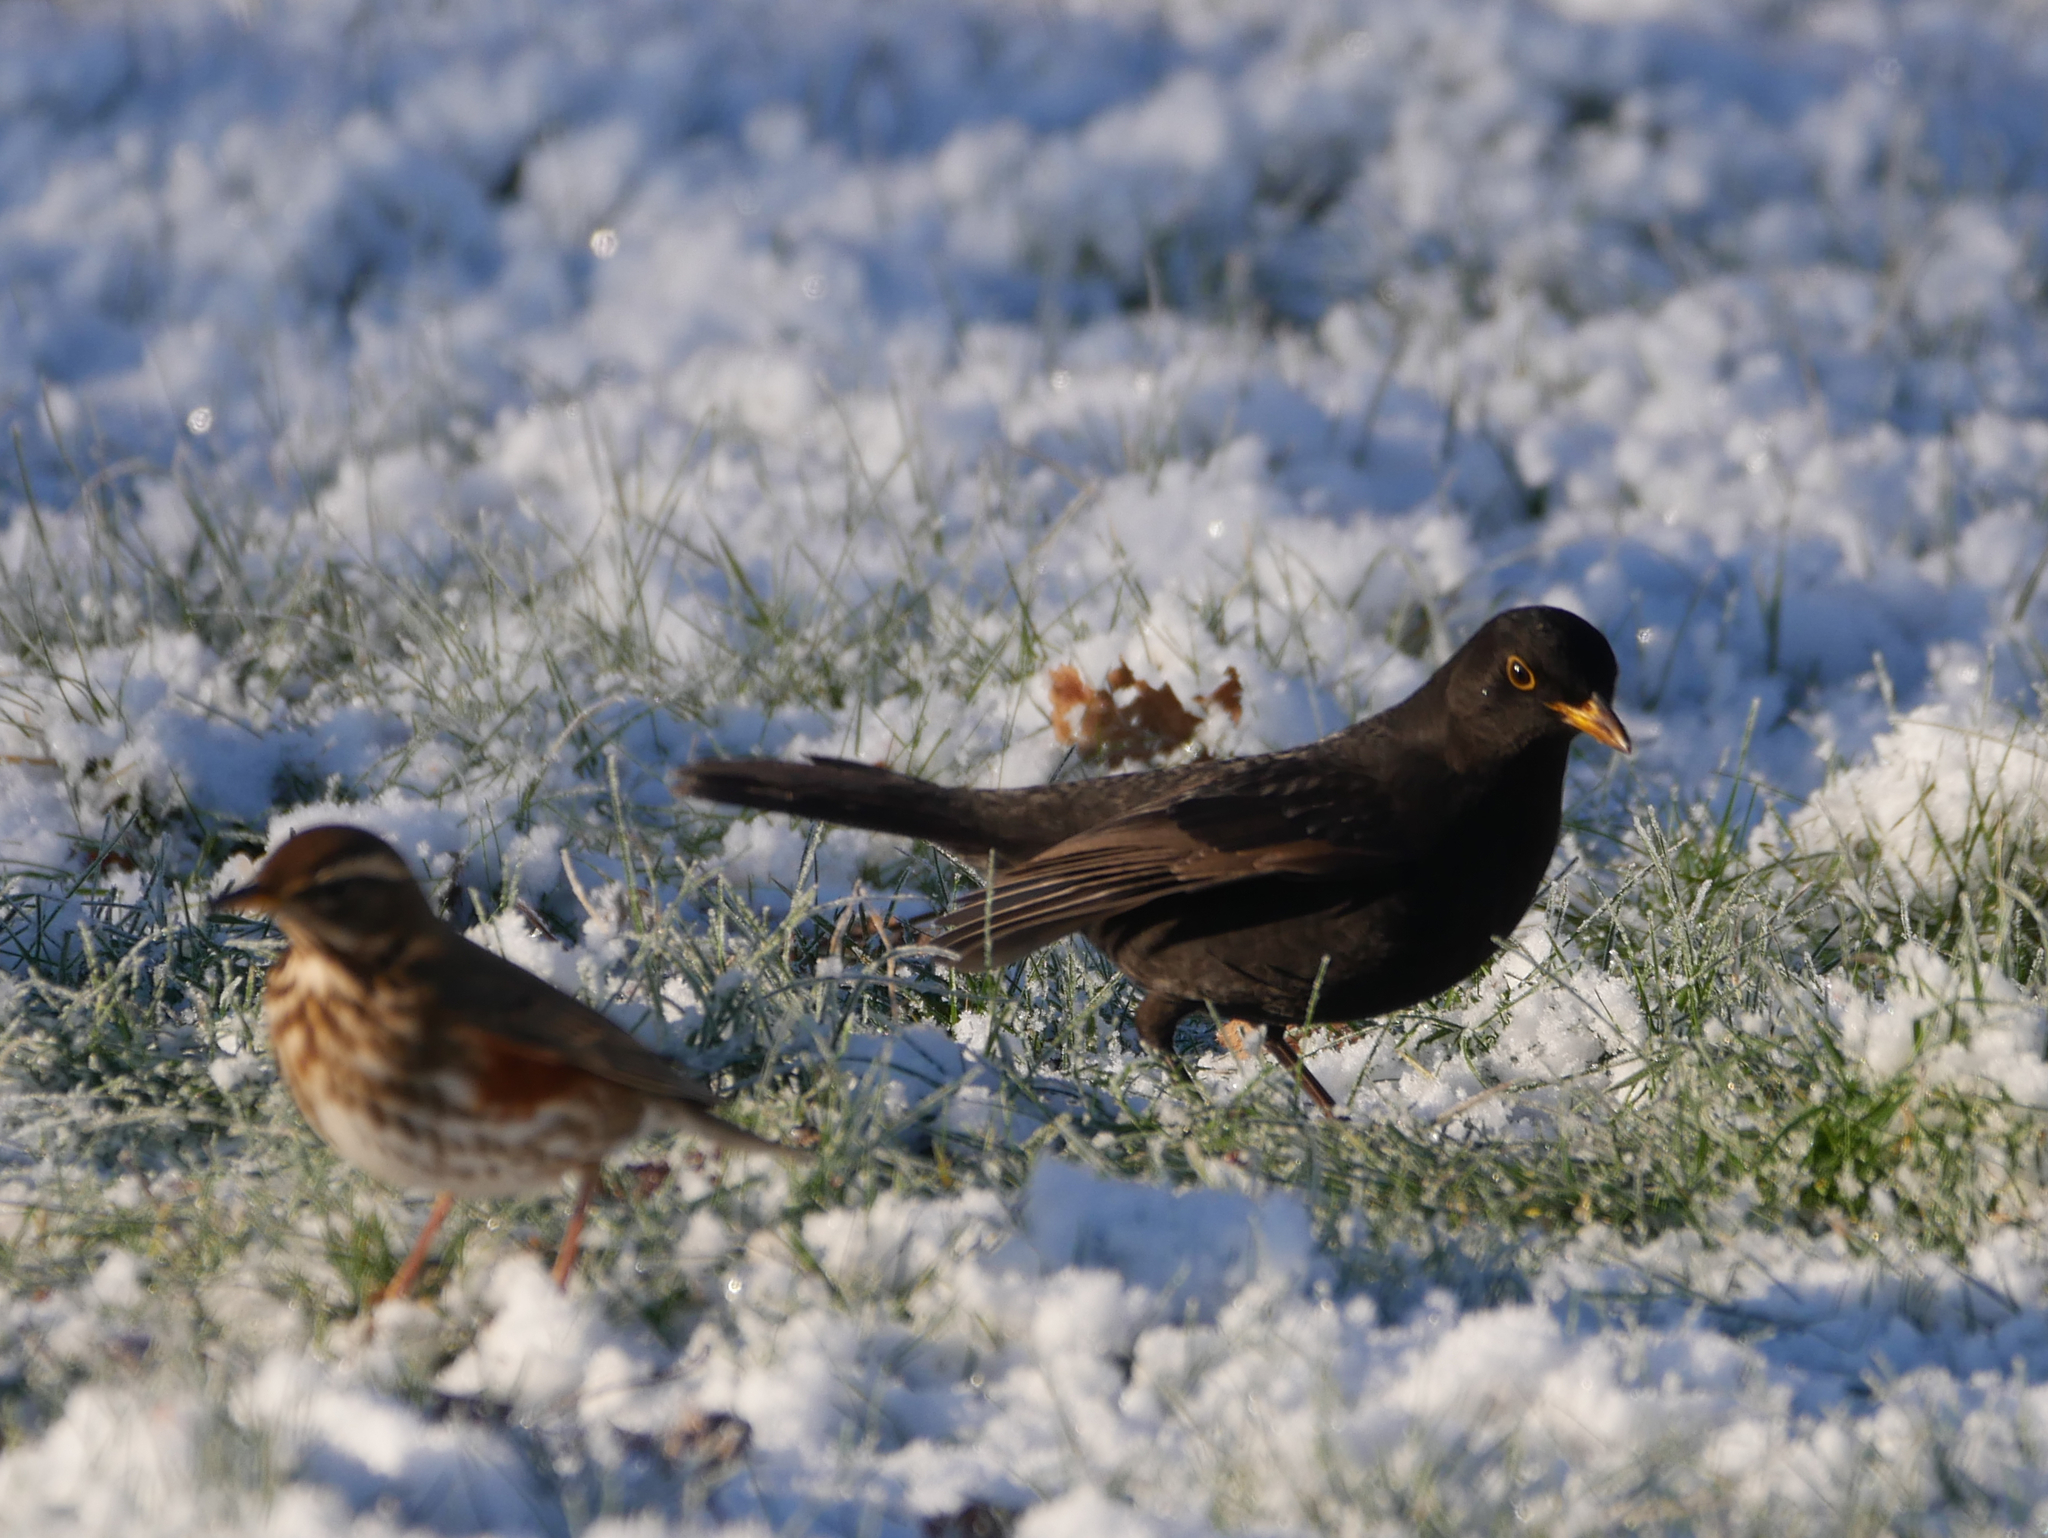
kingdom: Animalia
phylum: Chordata
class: Aves
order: Passeriformes
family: Turdidae
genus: Turdus
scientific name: Turdus merula
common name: Common blackbird
